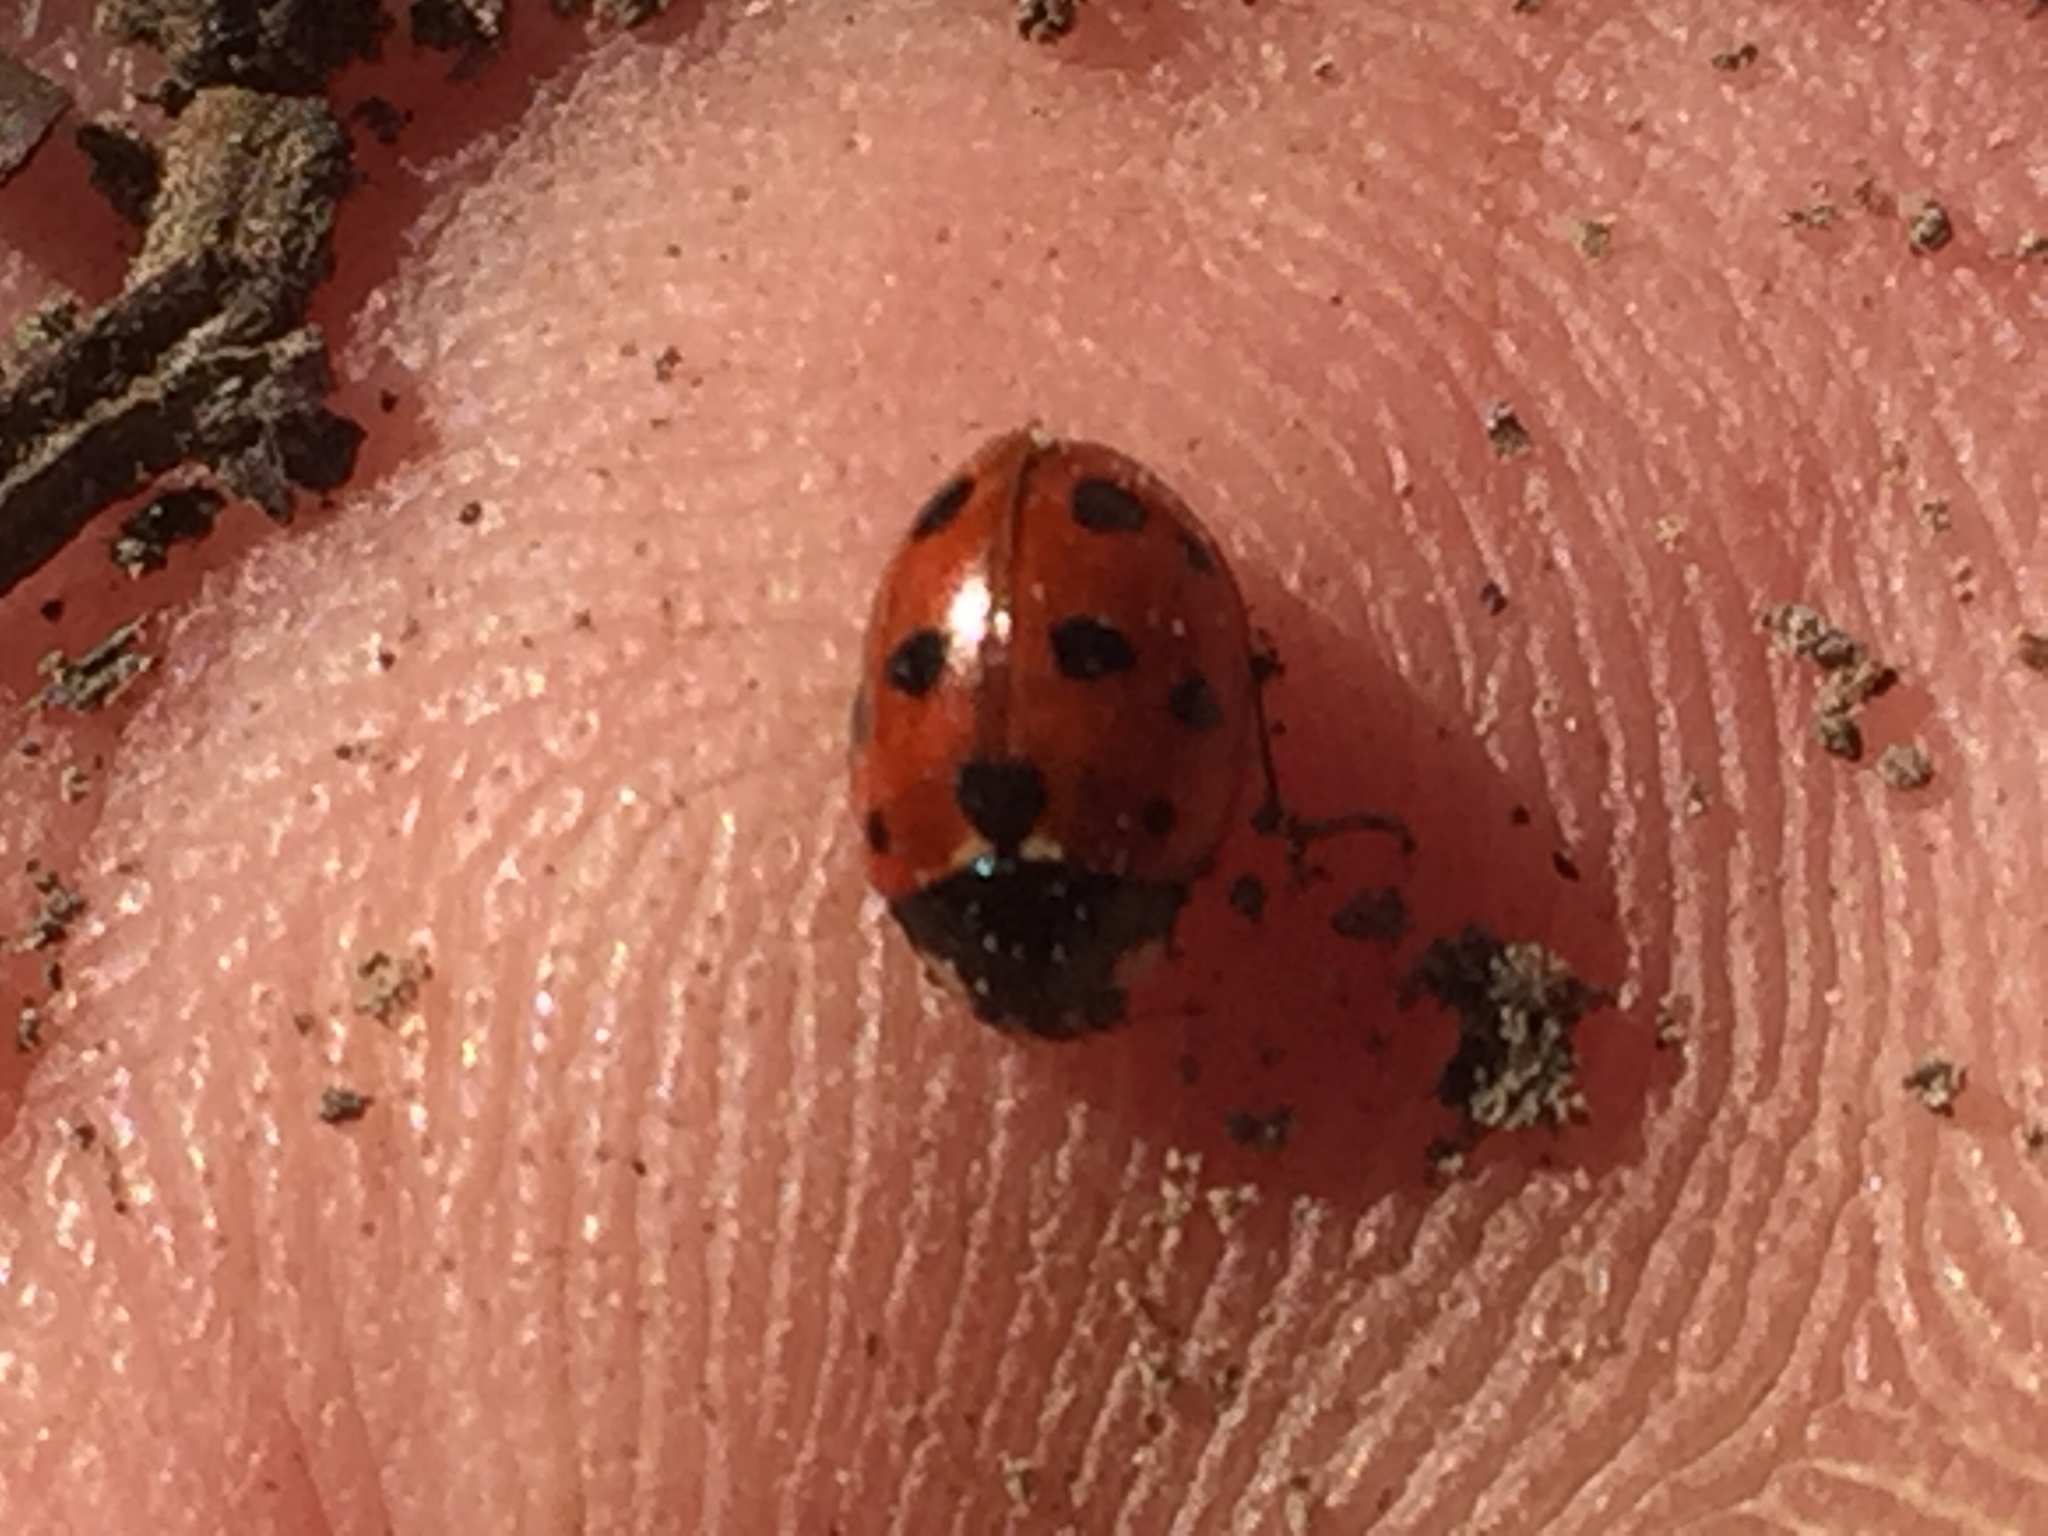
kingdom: Animalia
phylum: Arthropoda
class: Insecta
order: Coleoptera
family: Coccinellidae
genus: Coccinella
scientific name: Coccinella undecimpunctata
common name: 11-spot ladybird
